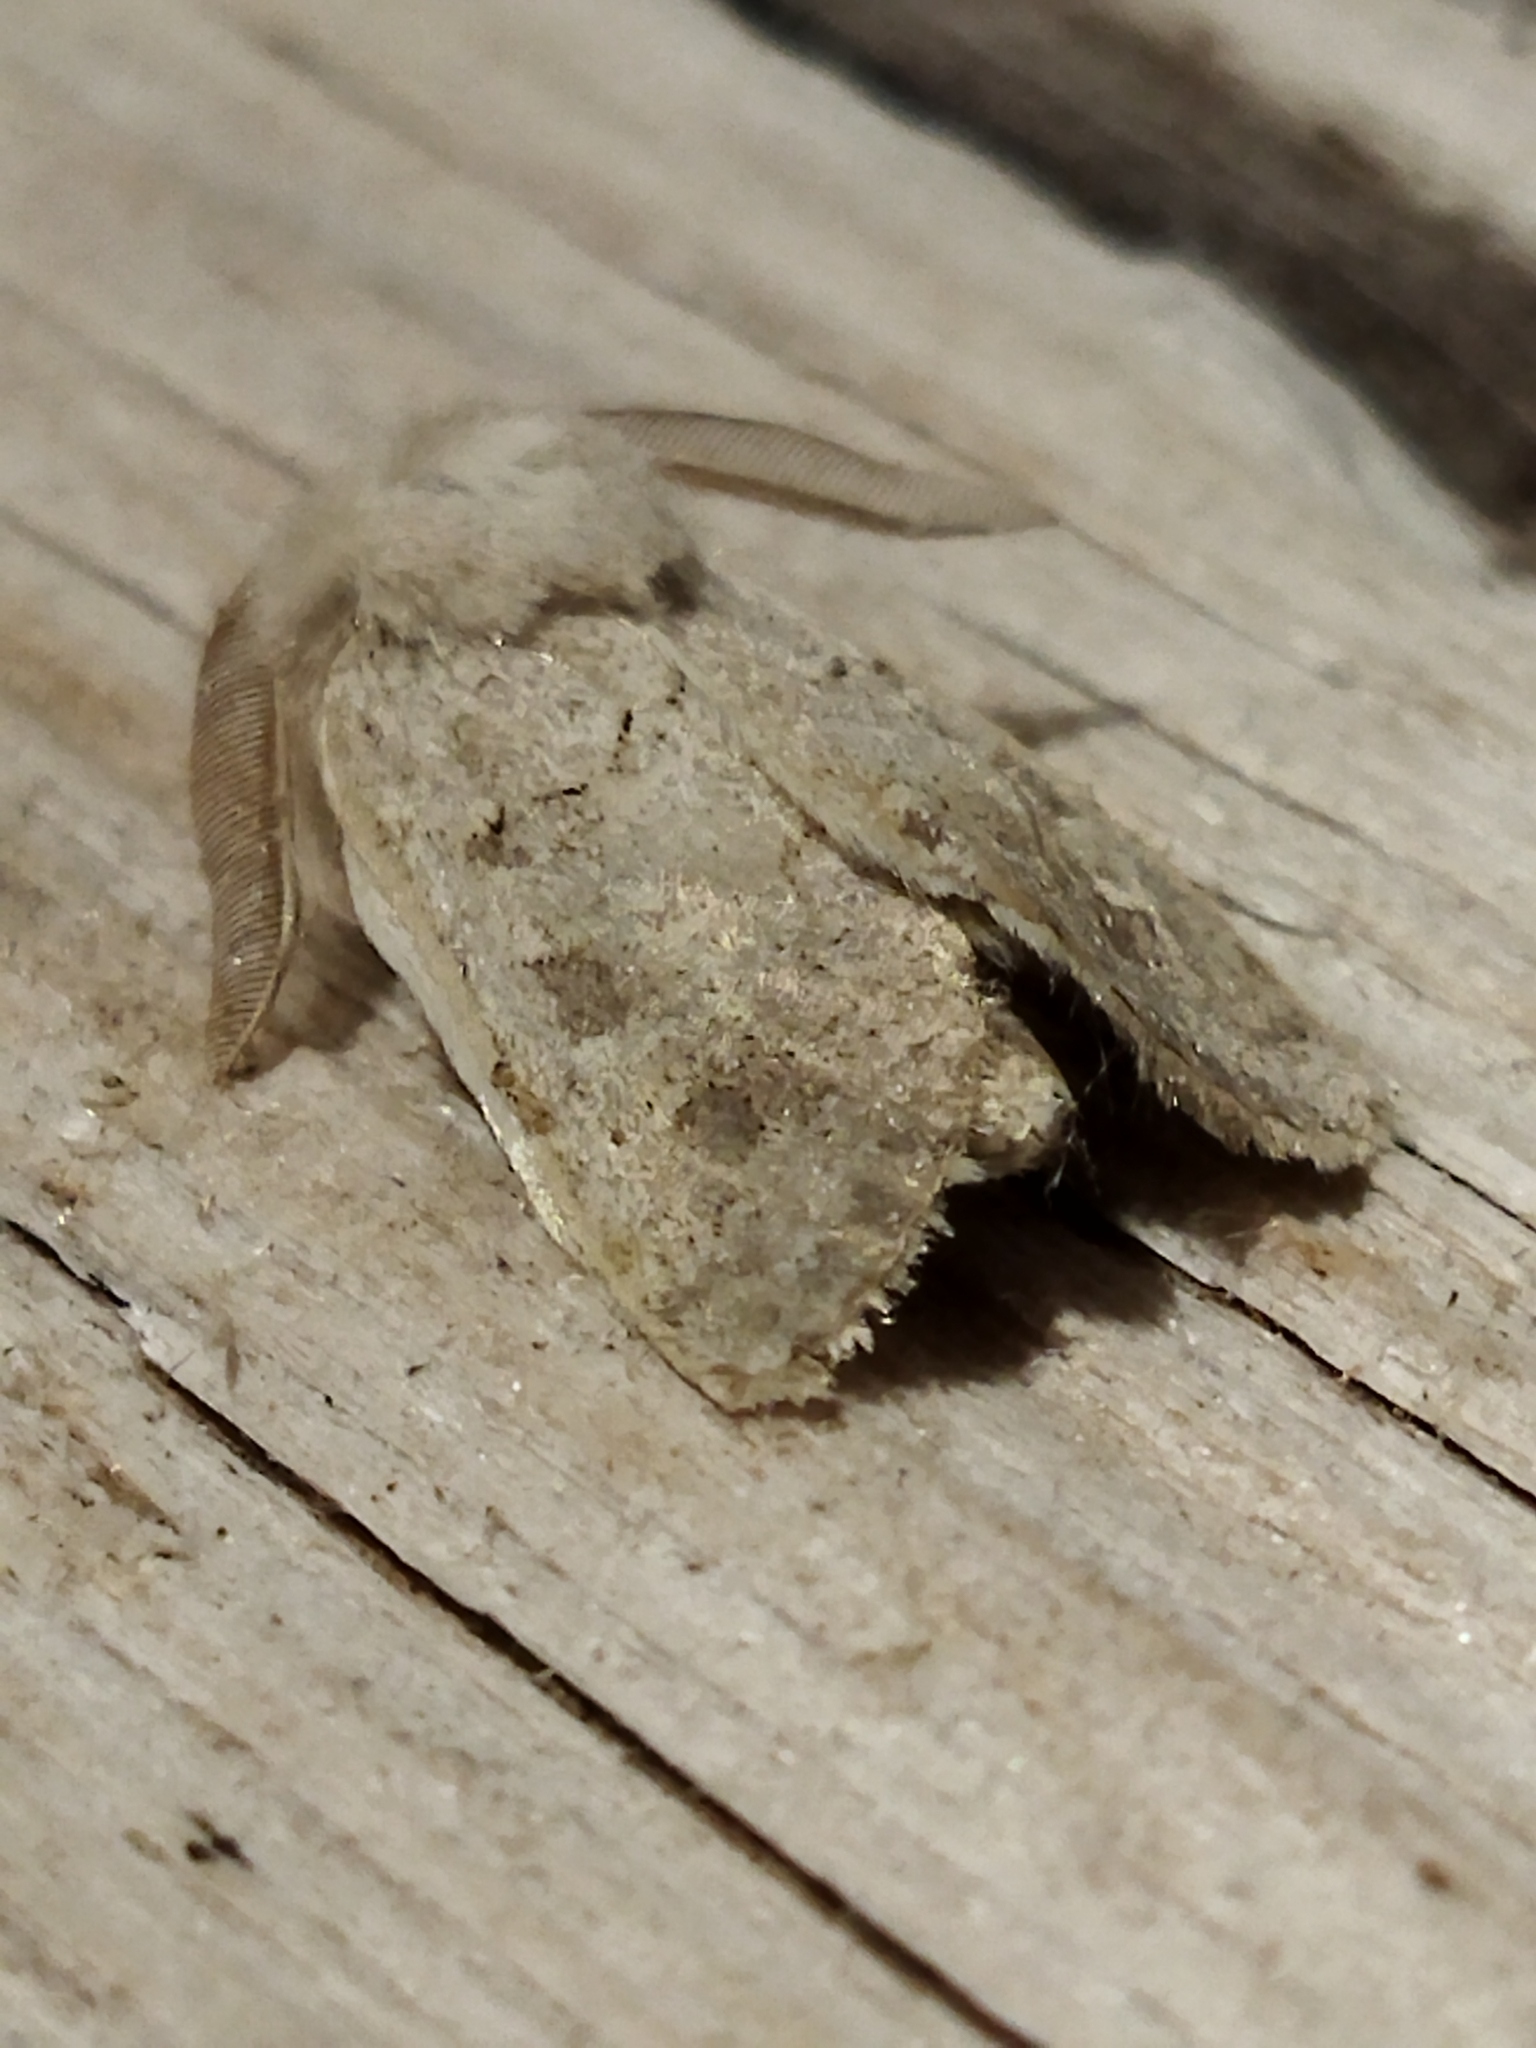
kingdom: Animalia
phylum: Arthropoda
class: Insecta
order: Lepidoptera
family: Noctuidae
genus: Episema
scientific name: Episema lederi
